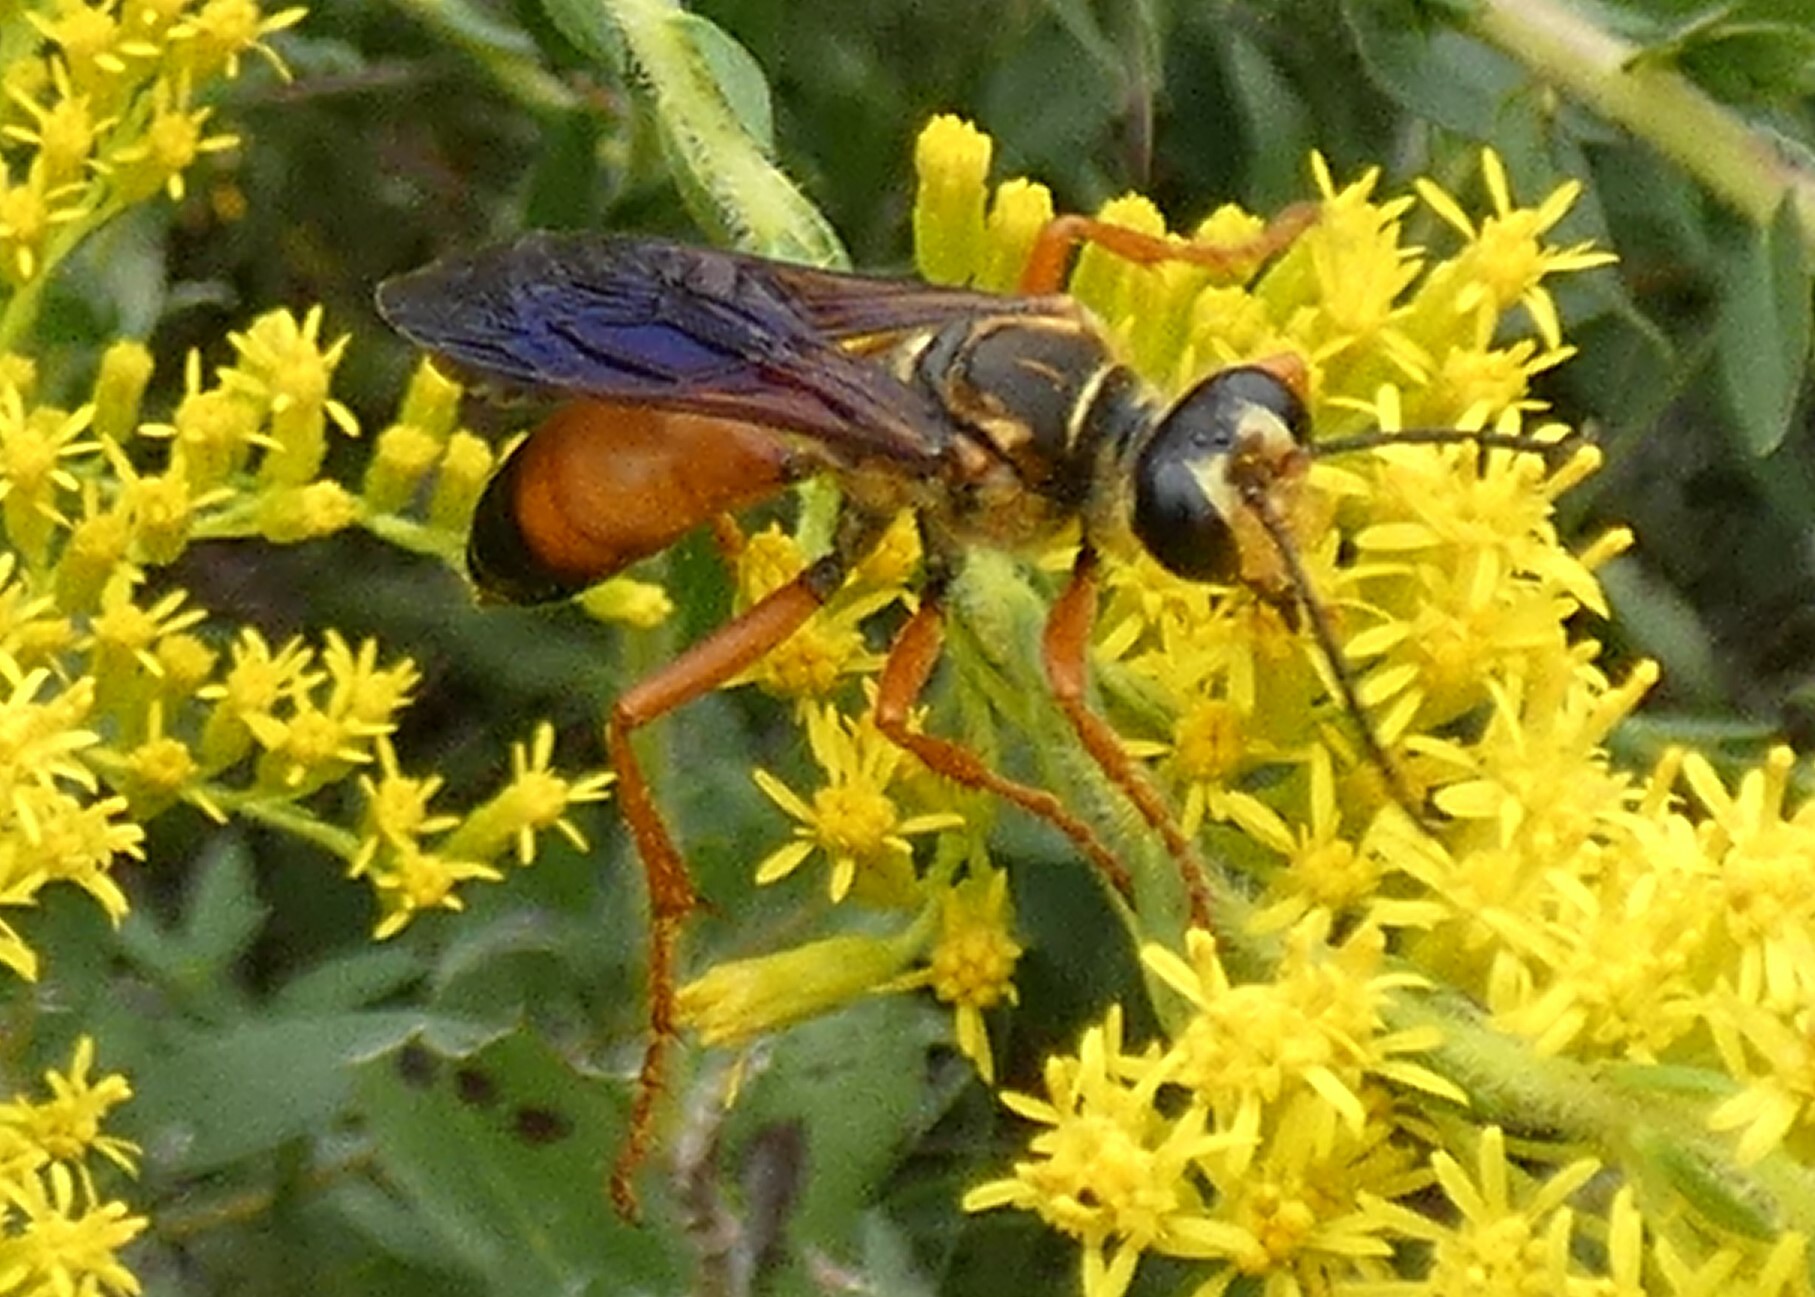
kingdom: Animalia
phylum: Arthropoda
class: Insecta
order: Hymenoptera
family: Sphecidae
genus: Sphex
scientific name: Sphex ichneumoneus
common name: Great golden digger wasp
